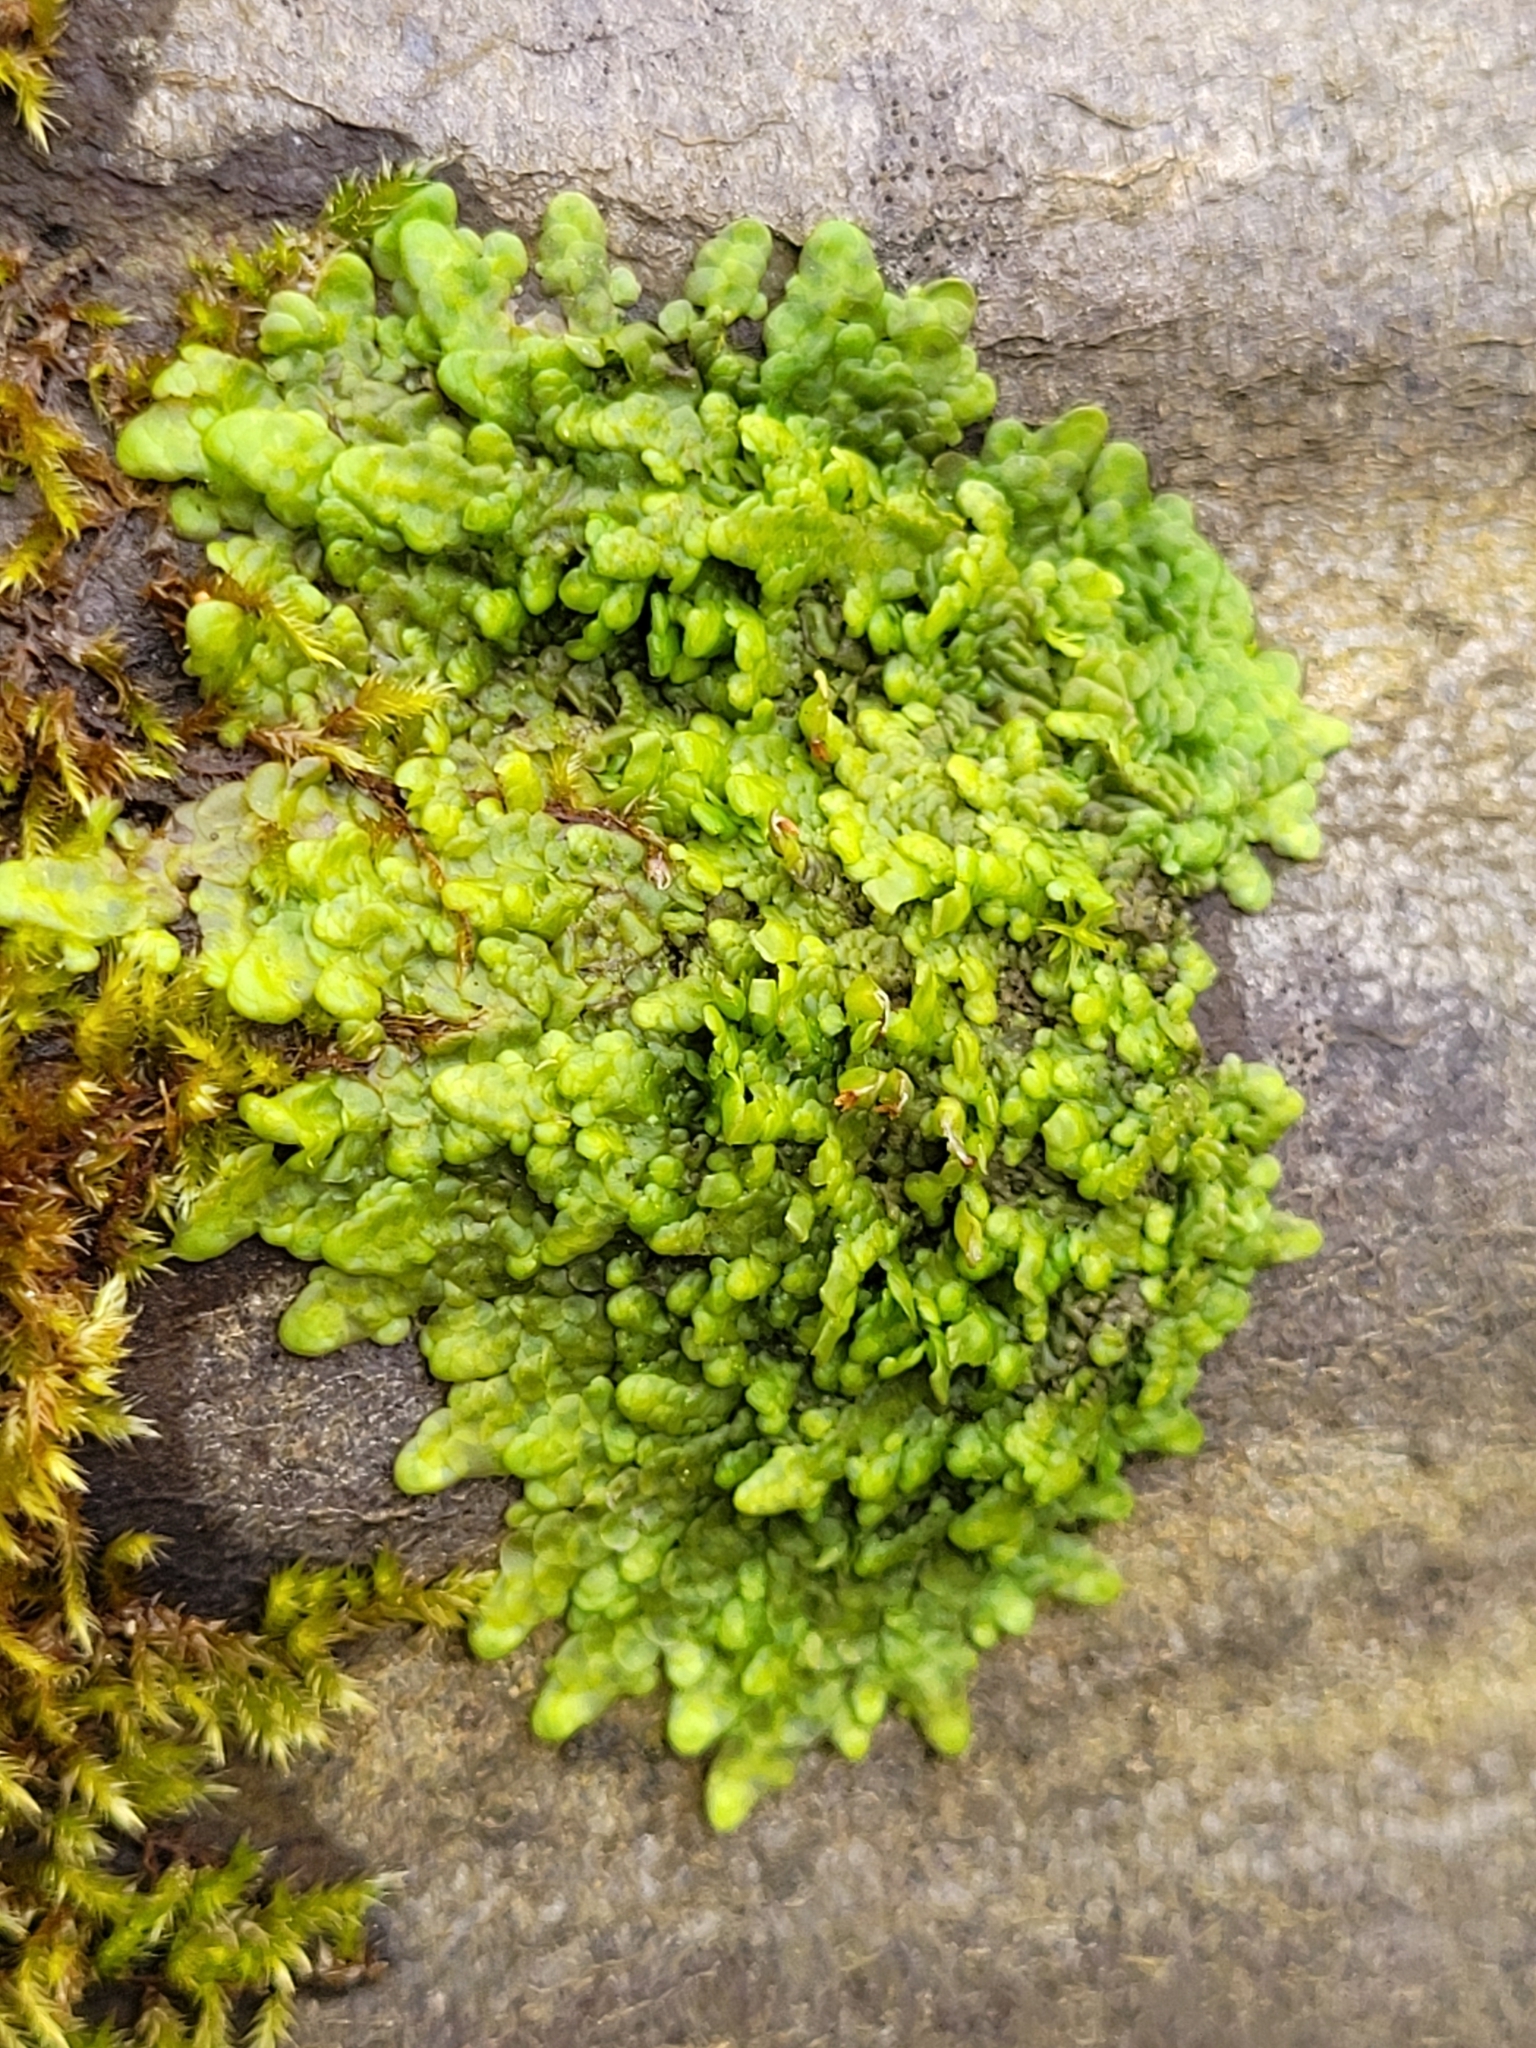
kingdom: Plantae
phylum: Marchantiophyta
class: Jungermanniopsida
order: Porellales
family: Radulaceae
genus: Radula
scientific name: Radula complanata
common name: Flat-leaved scalewort
